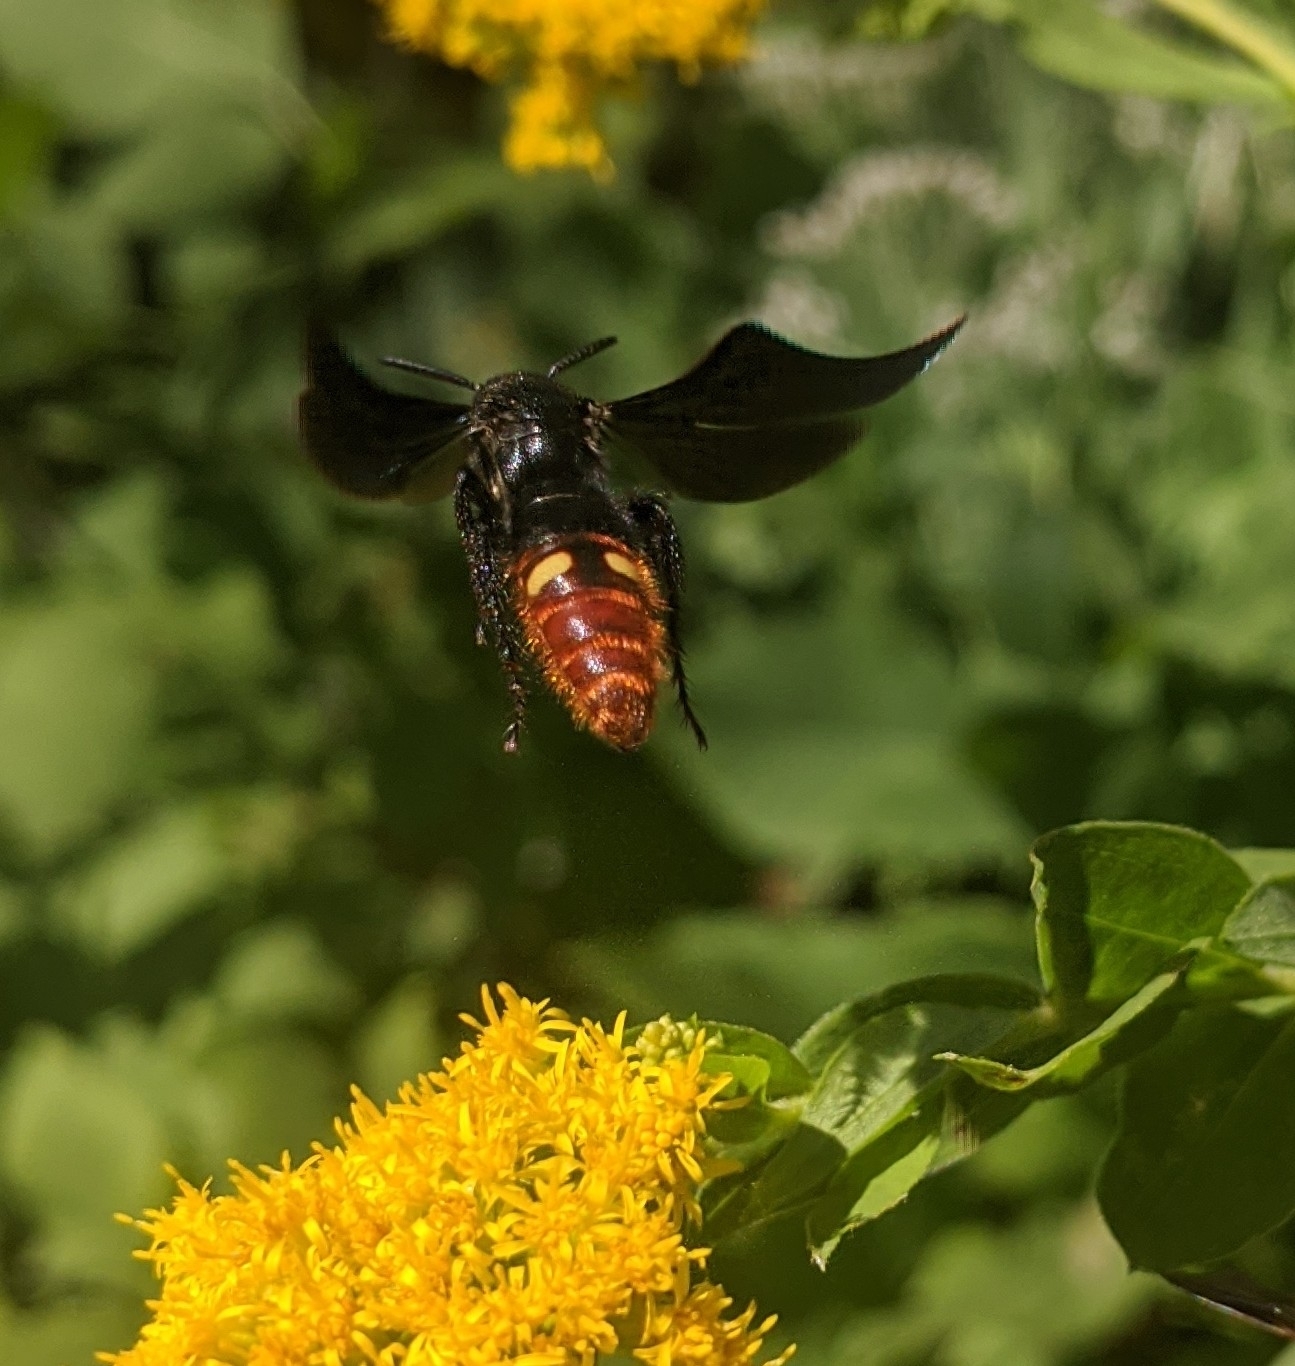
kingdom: Animalia
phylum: Arthropoda
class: Insecta
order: Hymenoptera
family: Scoliidae
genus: Scolia
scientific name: Scolia dubia
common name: Blue-winged scoliid wasp
